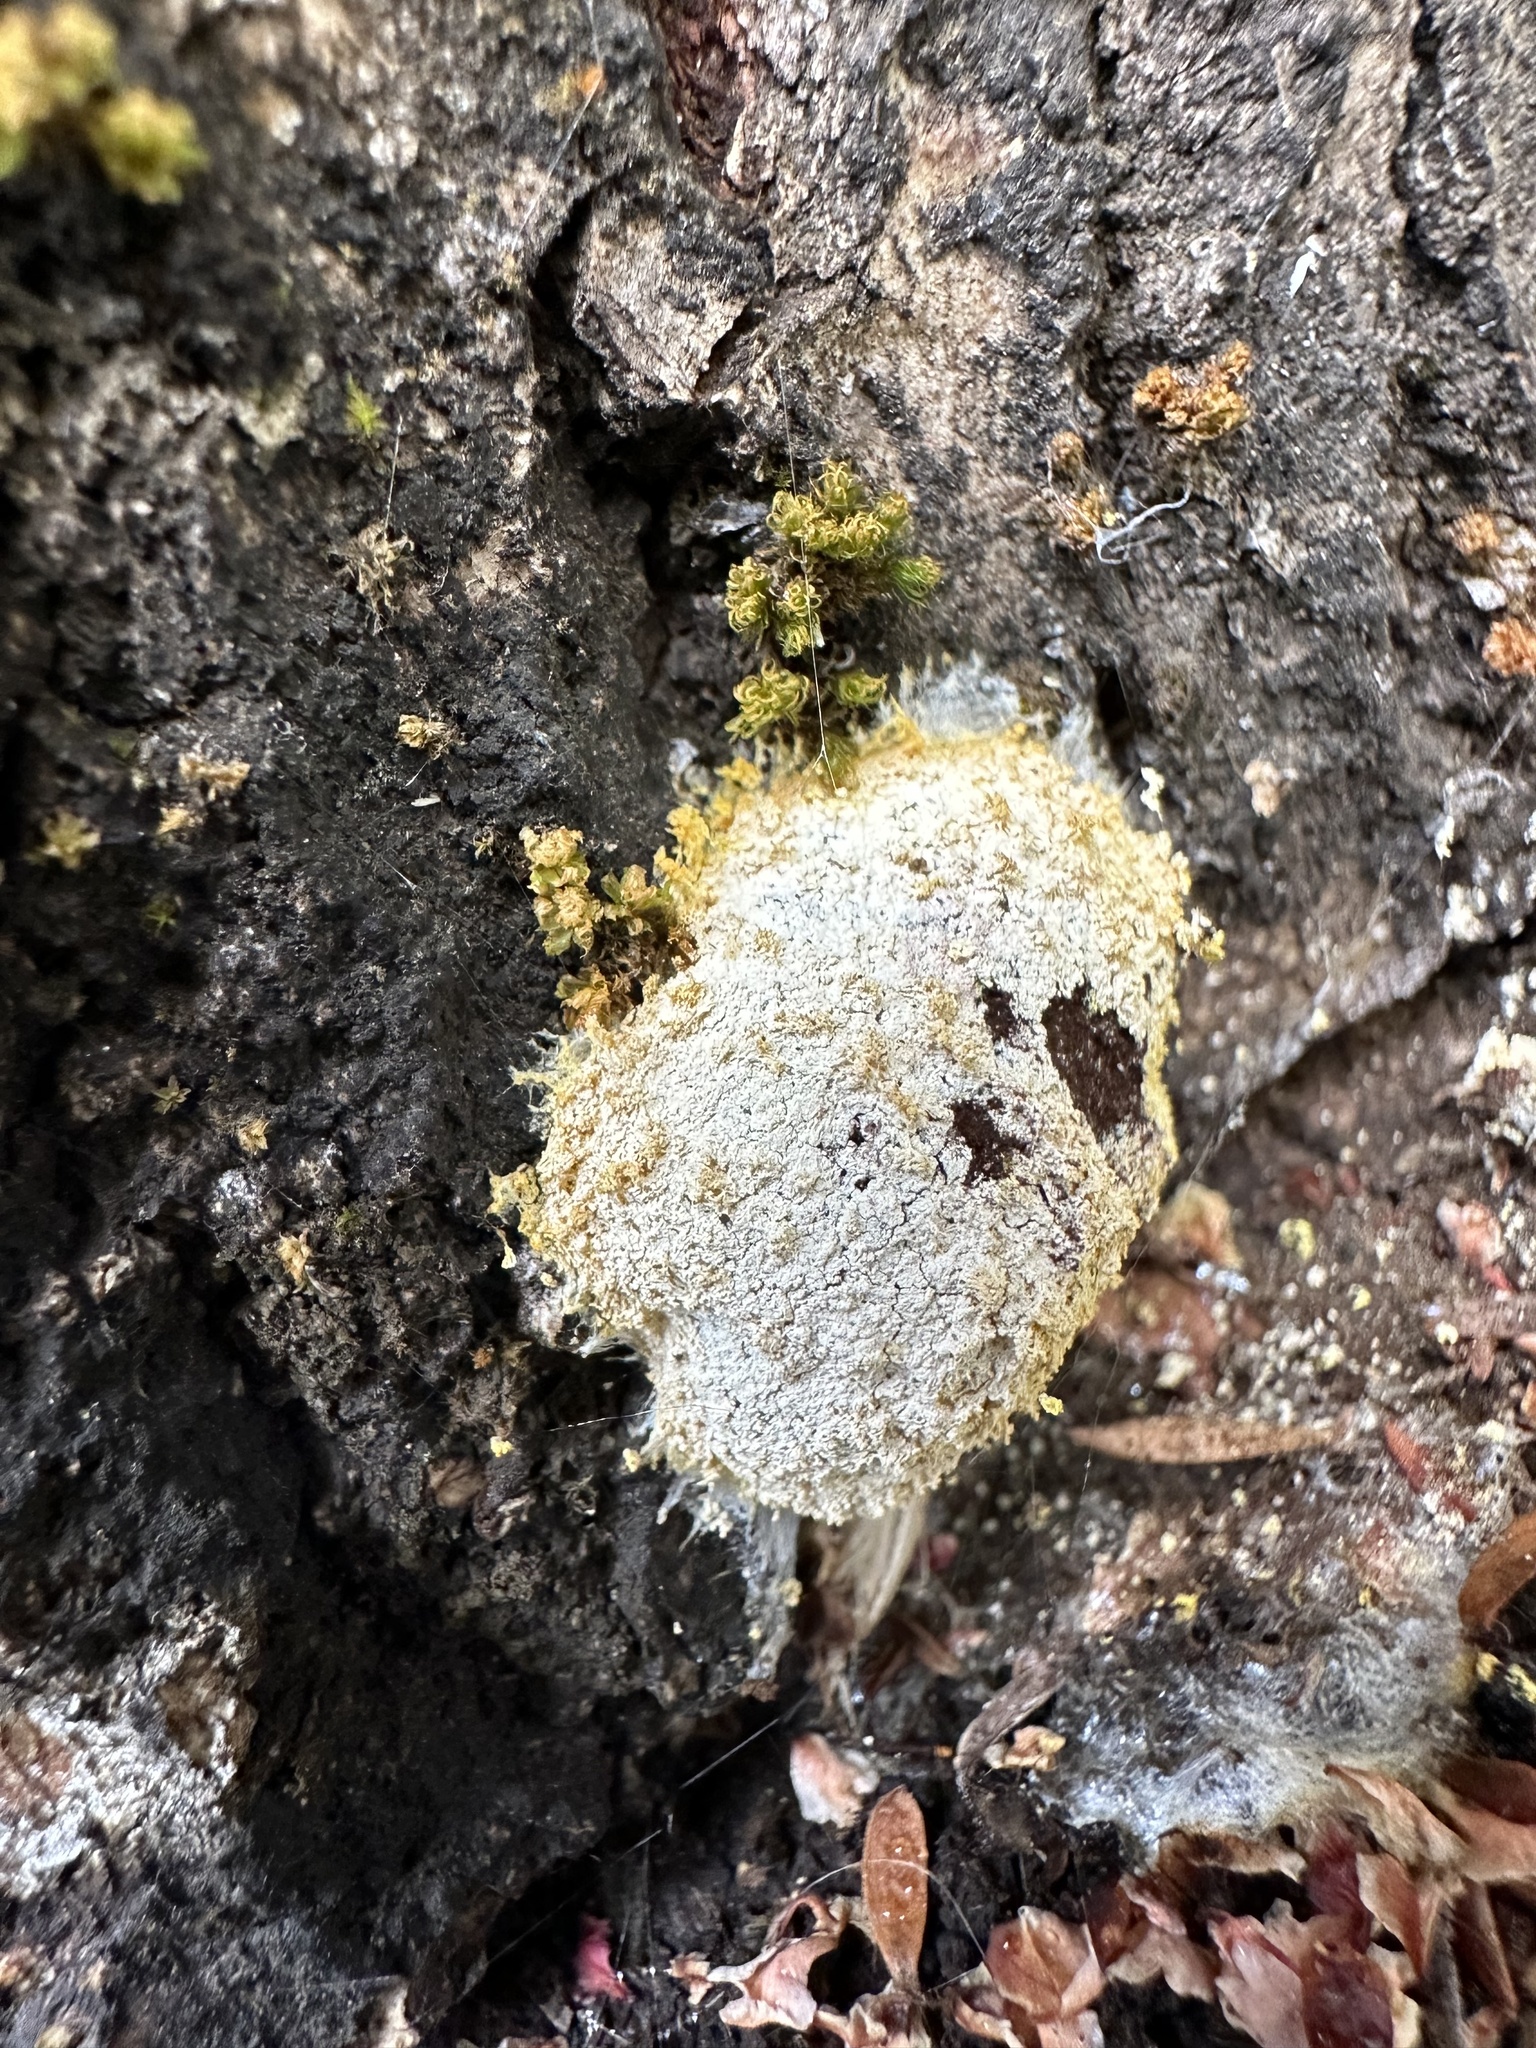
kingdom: Protozoa
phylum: Mycetozoa
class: Myxomycetes
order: Physarales
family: Physaraceae
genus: Fuligo
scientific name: Fuligo septica
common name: Dog vomit slime mold
